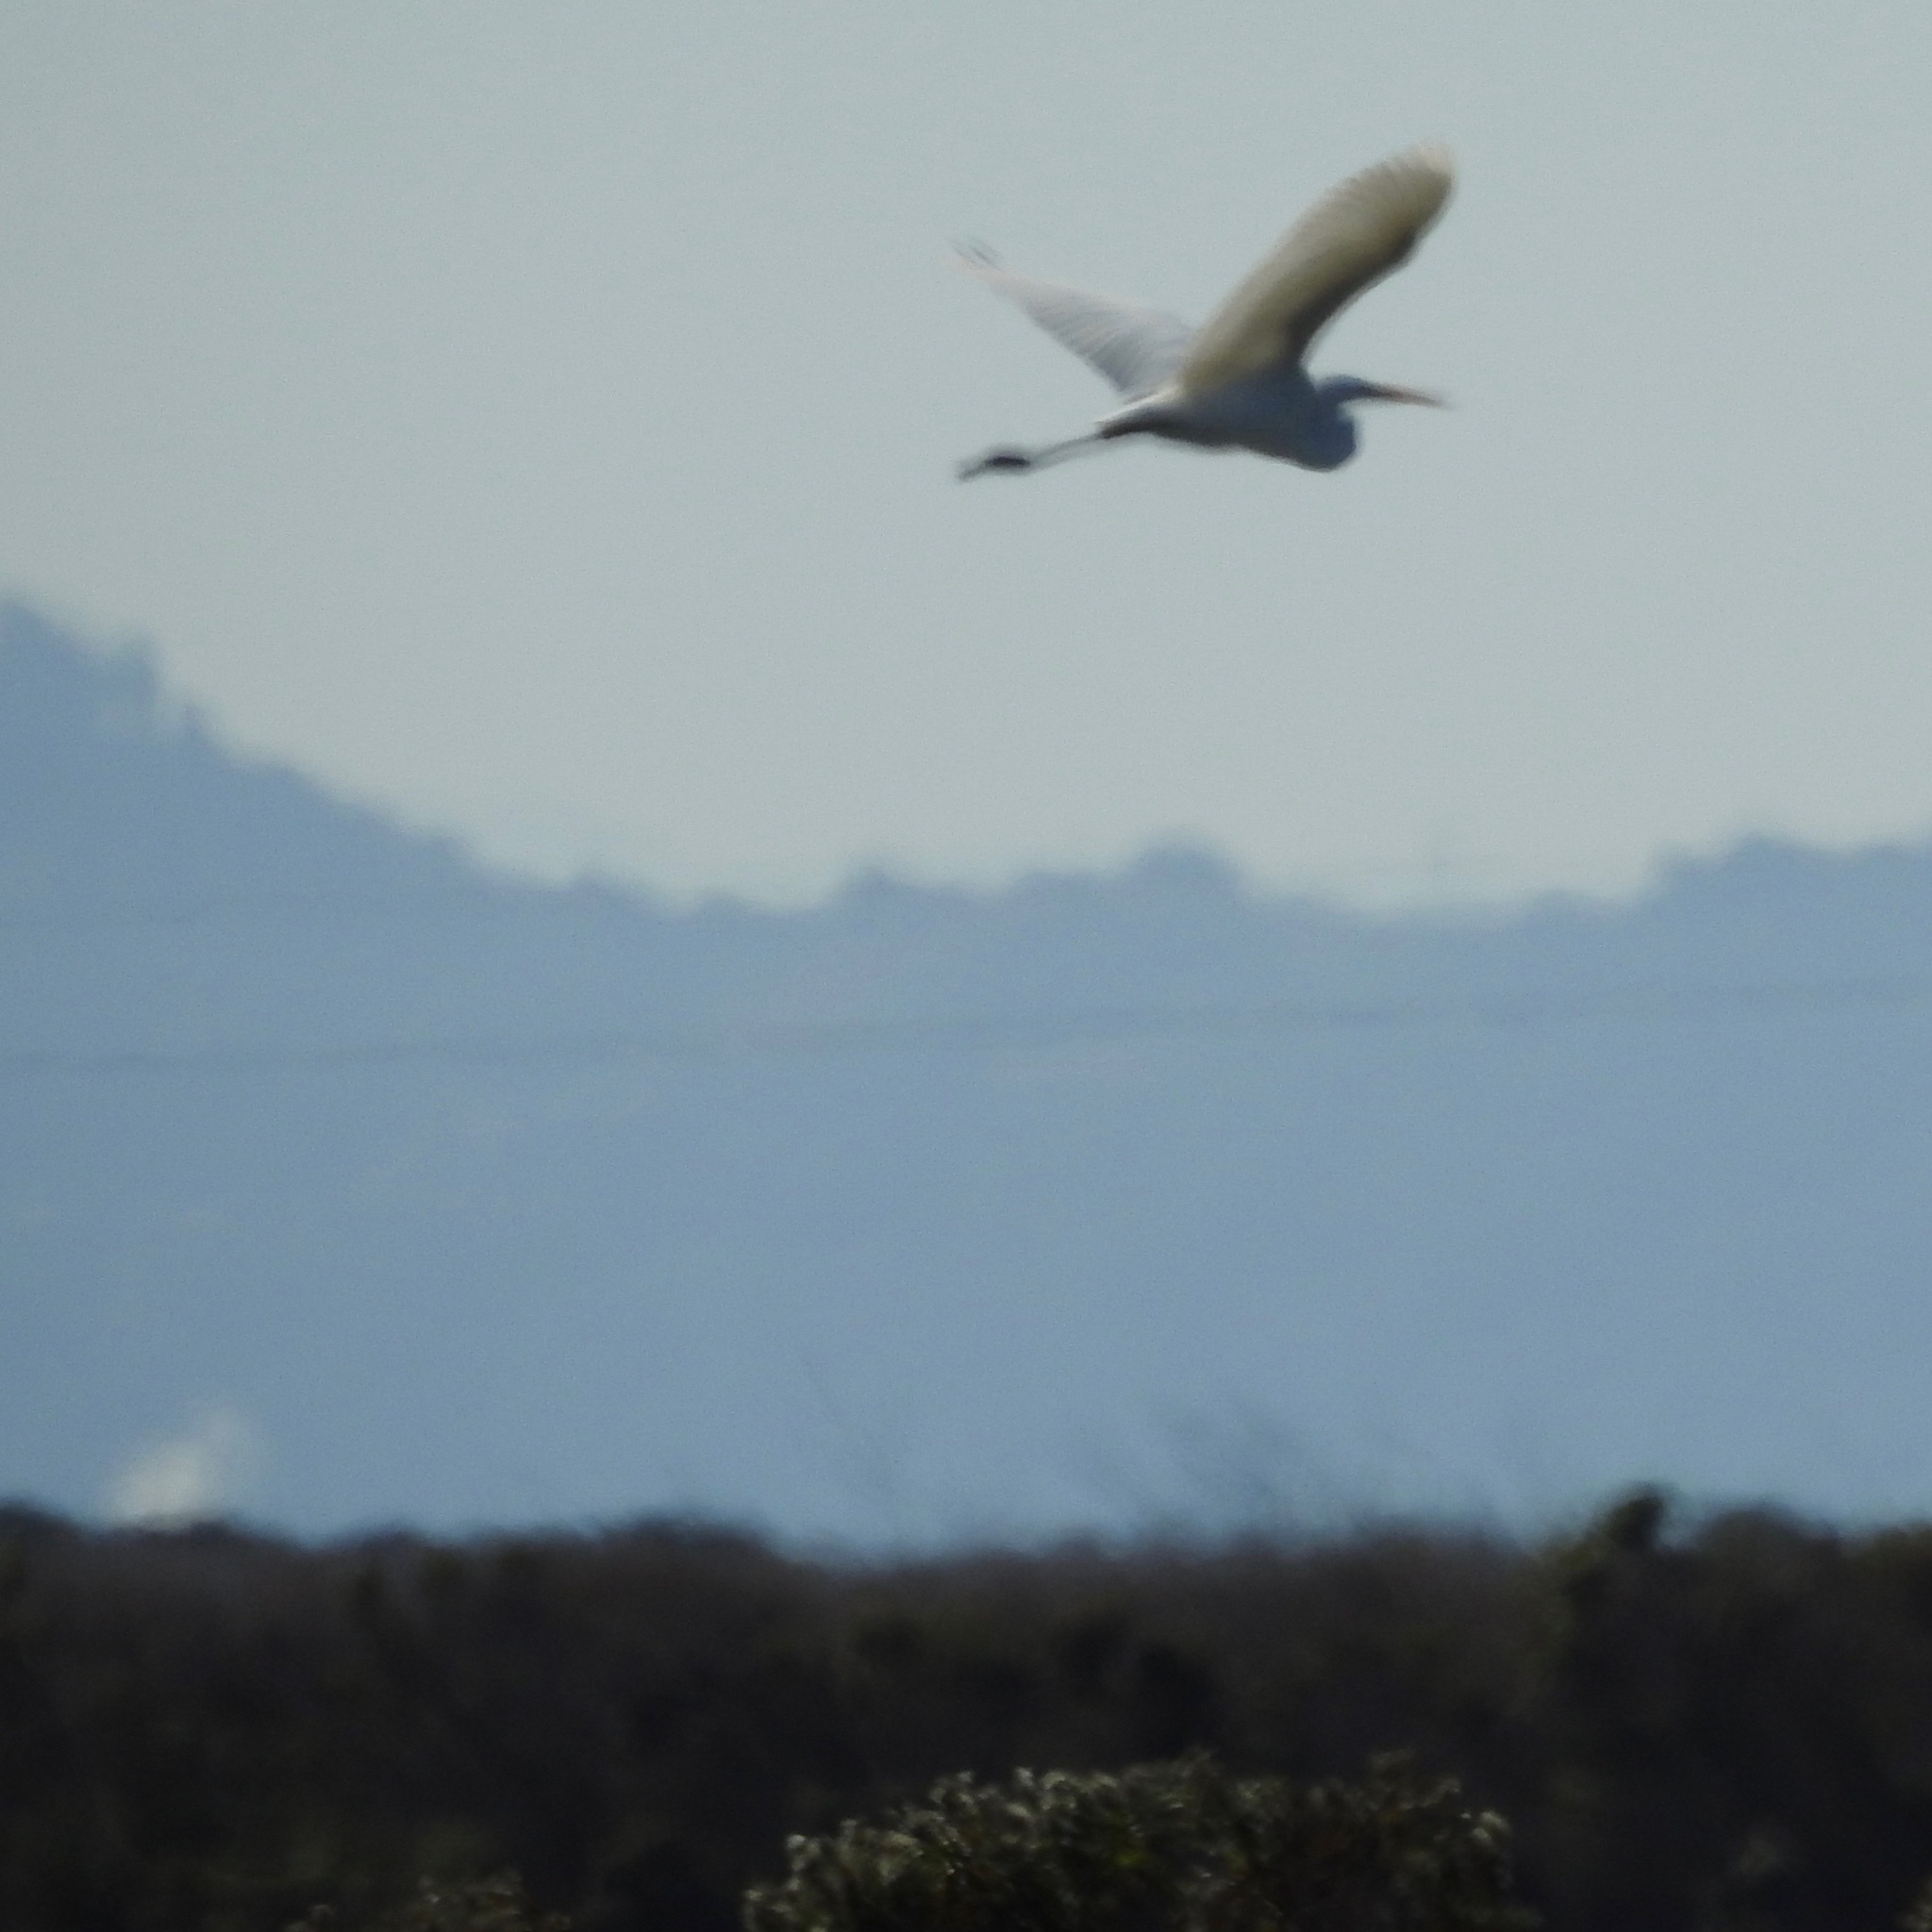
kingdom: Animalia
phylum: Chordata
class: Aves
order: Pelecaniformes
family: Ardeidae
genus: Ardea
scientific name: Ardea alba
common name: Great egret
